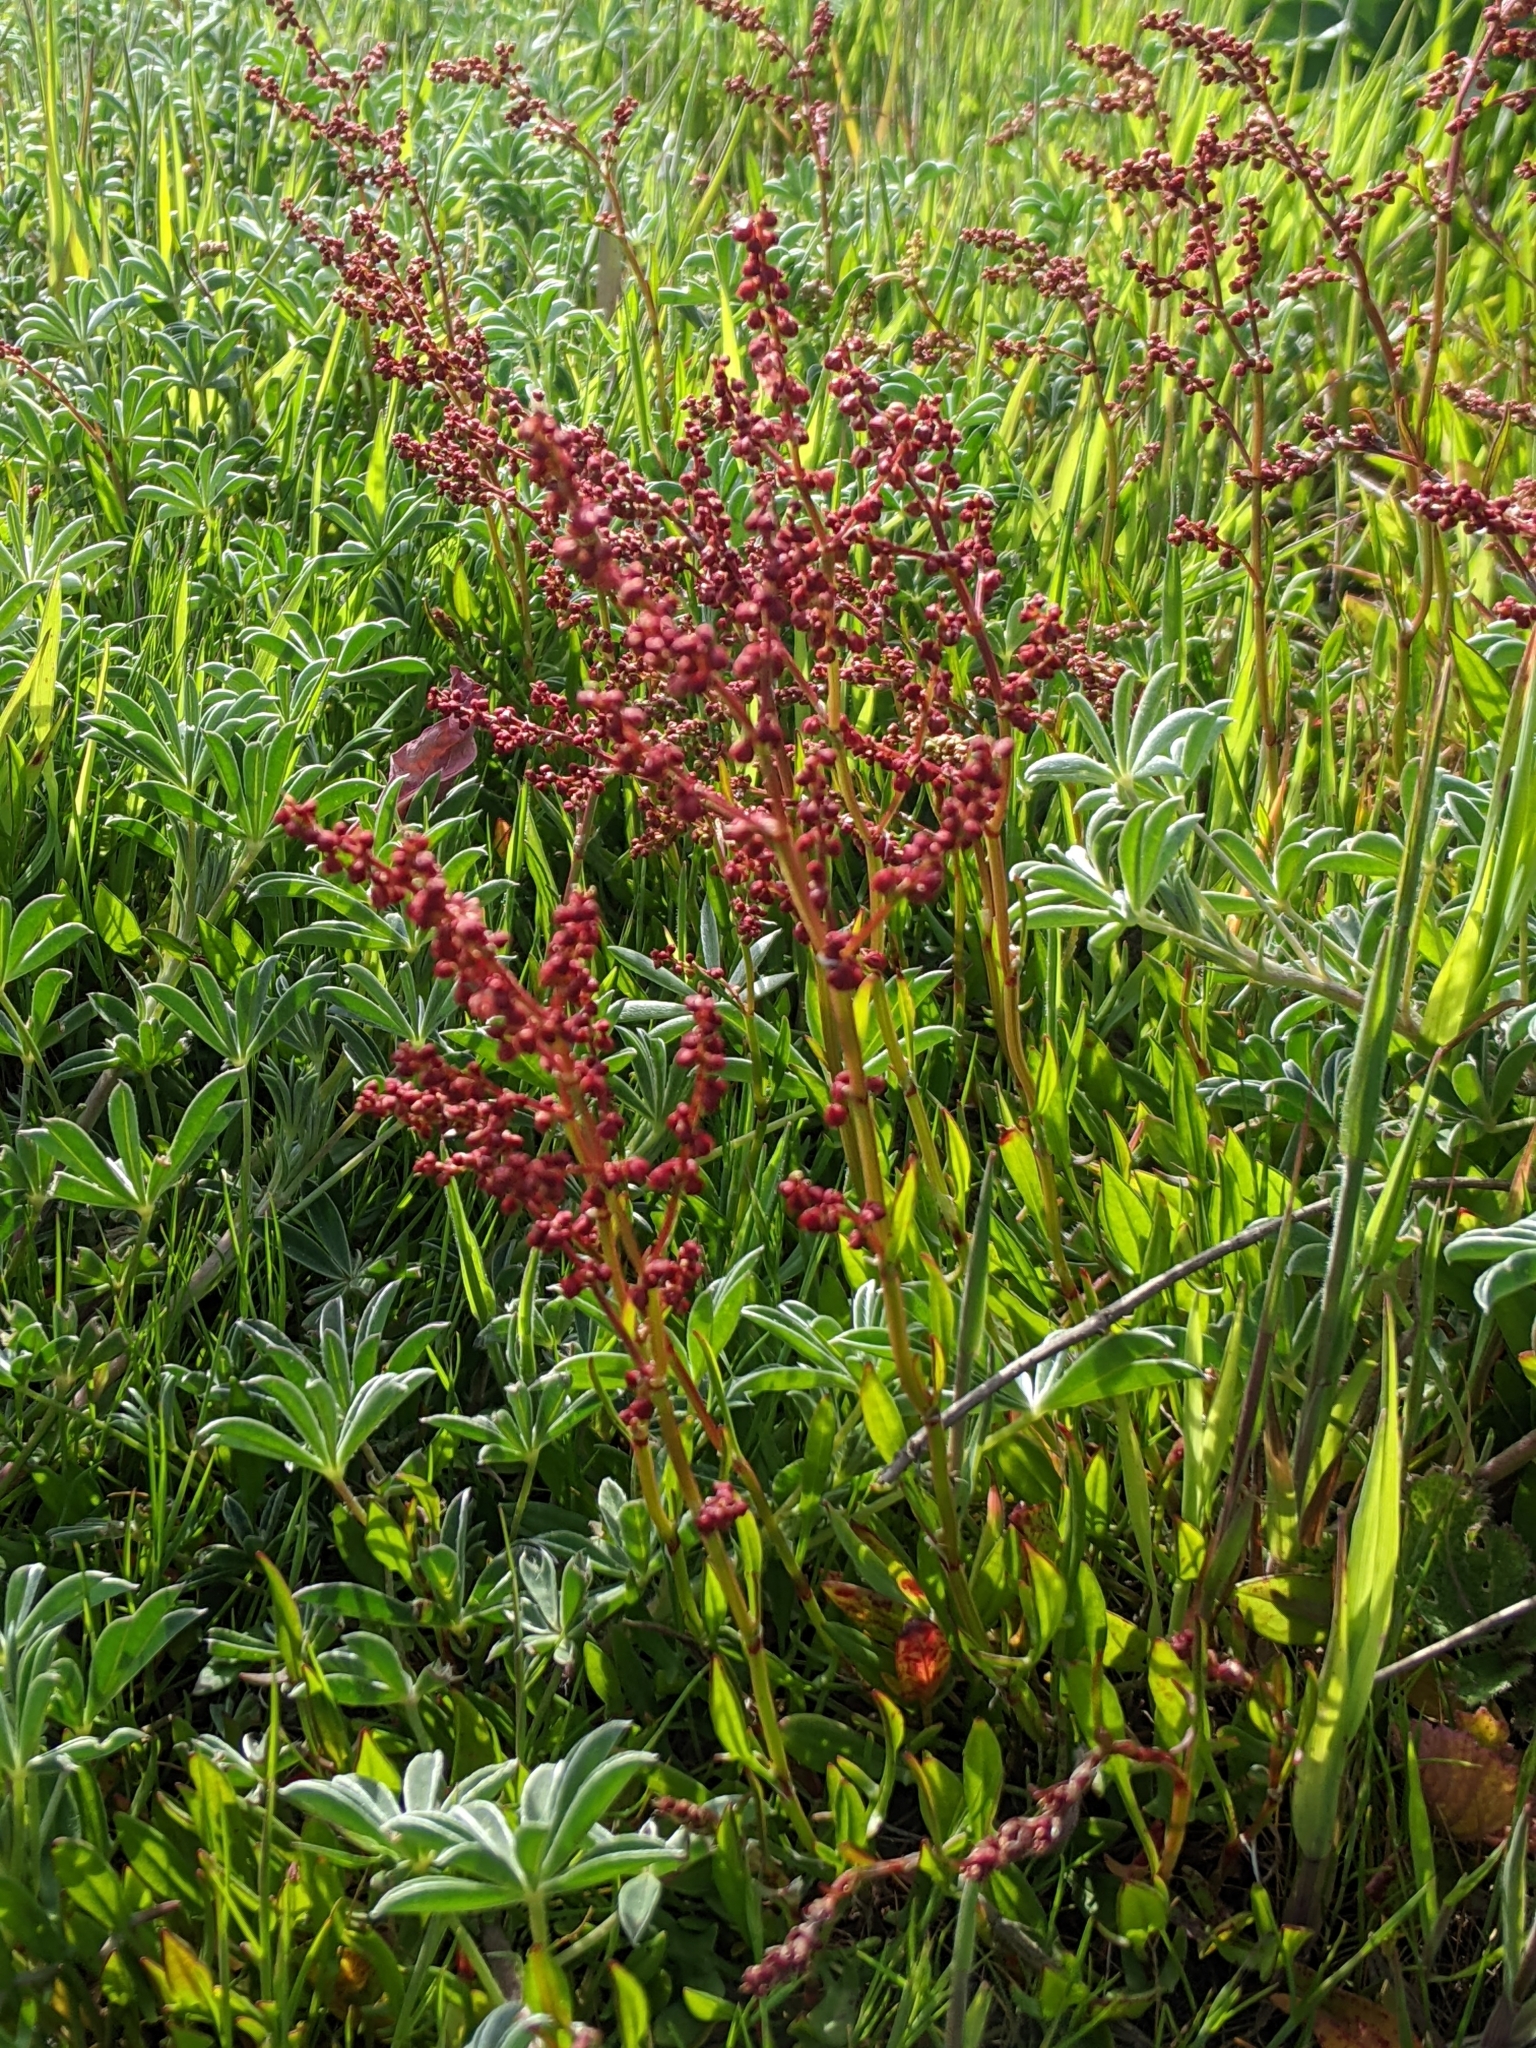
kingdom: Plantae
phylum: Tracheophyta
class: Magnoliopsida
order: Caryophyllales
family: Polygonaceae
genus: Rumex
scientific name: Rumex acetosella
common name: Common sheep sorrel
